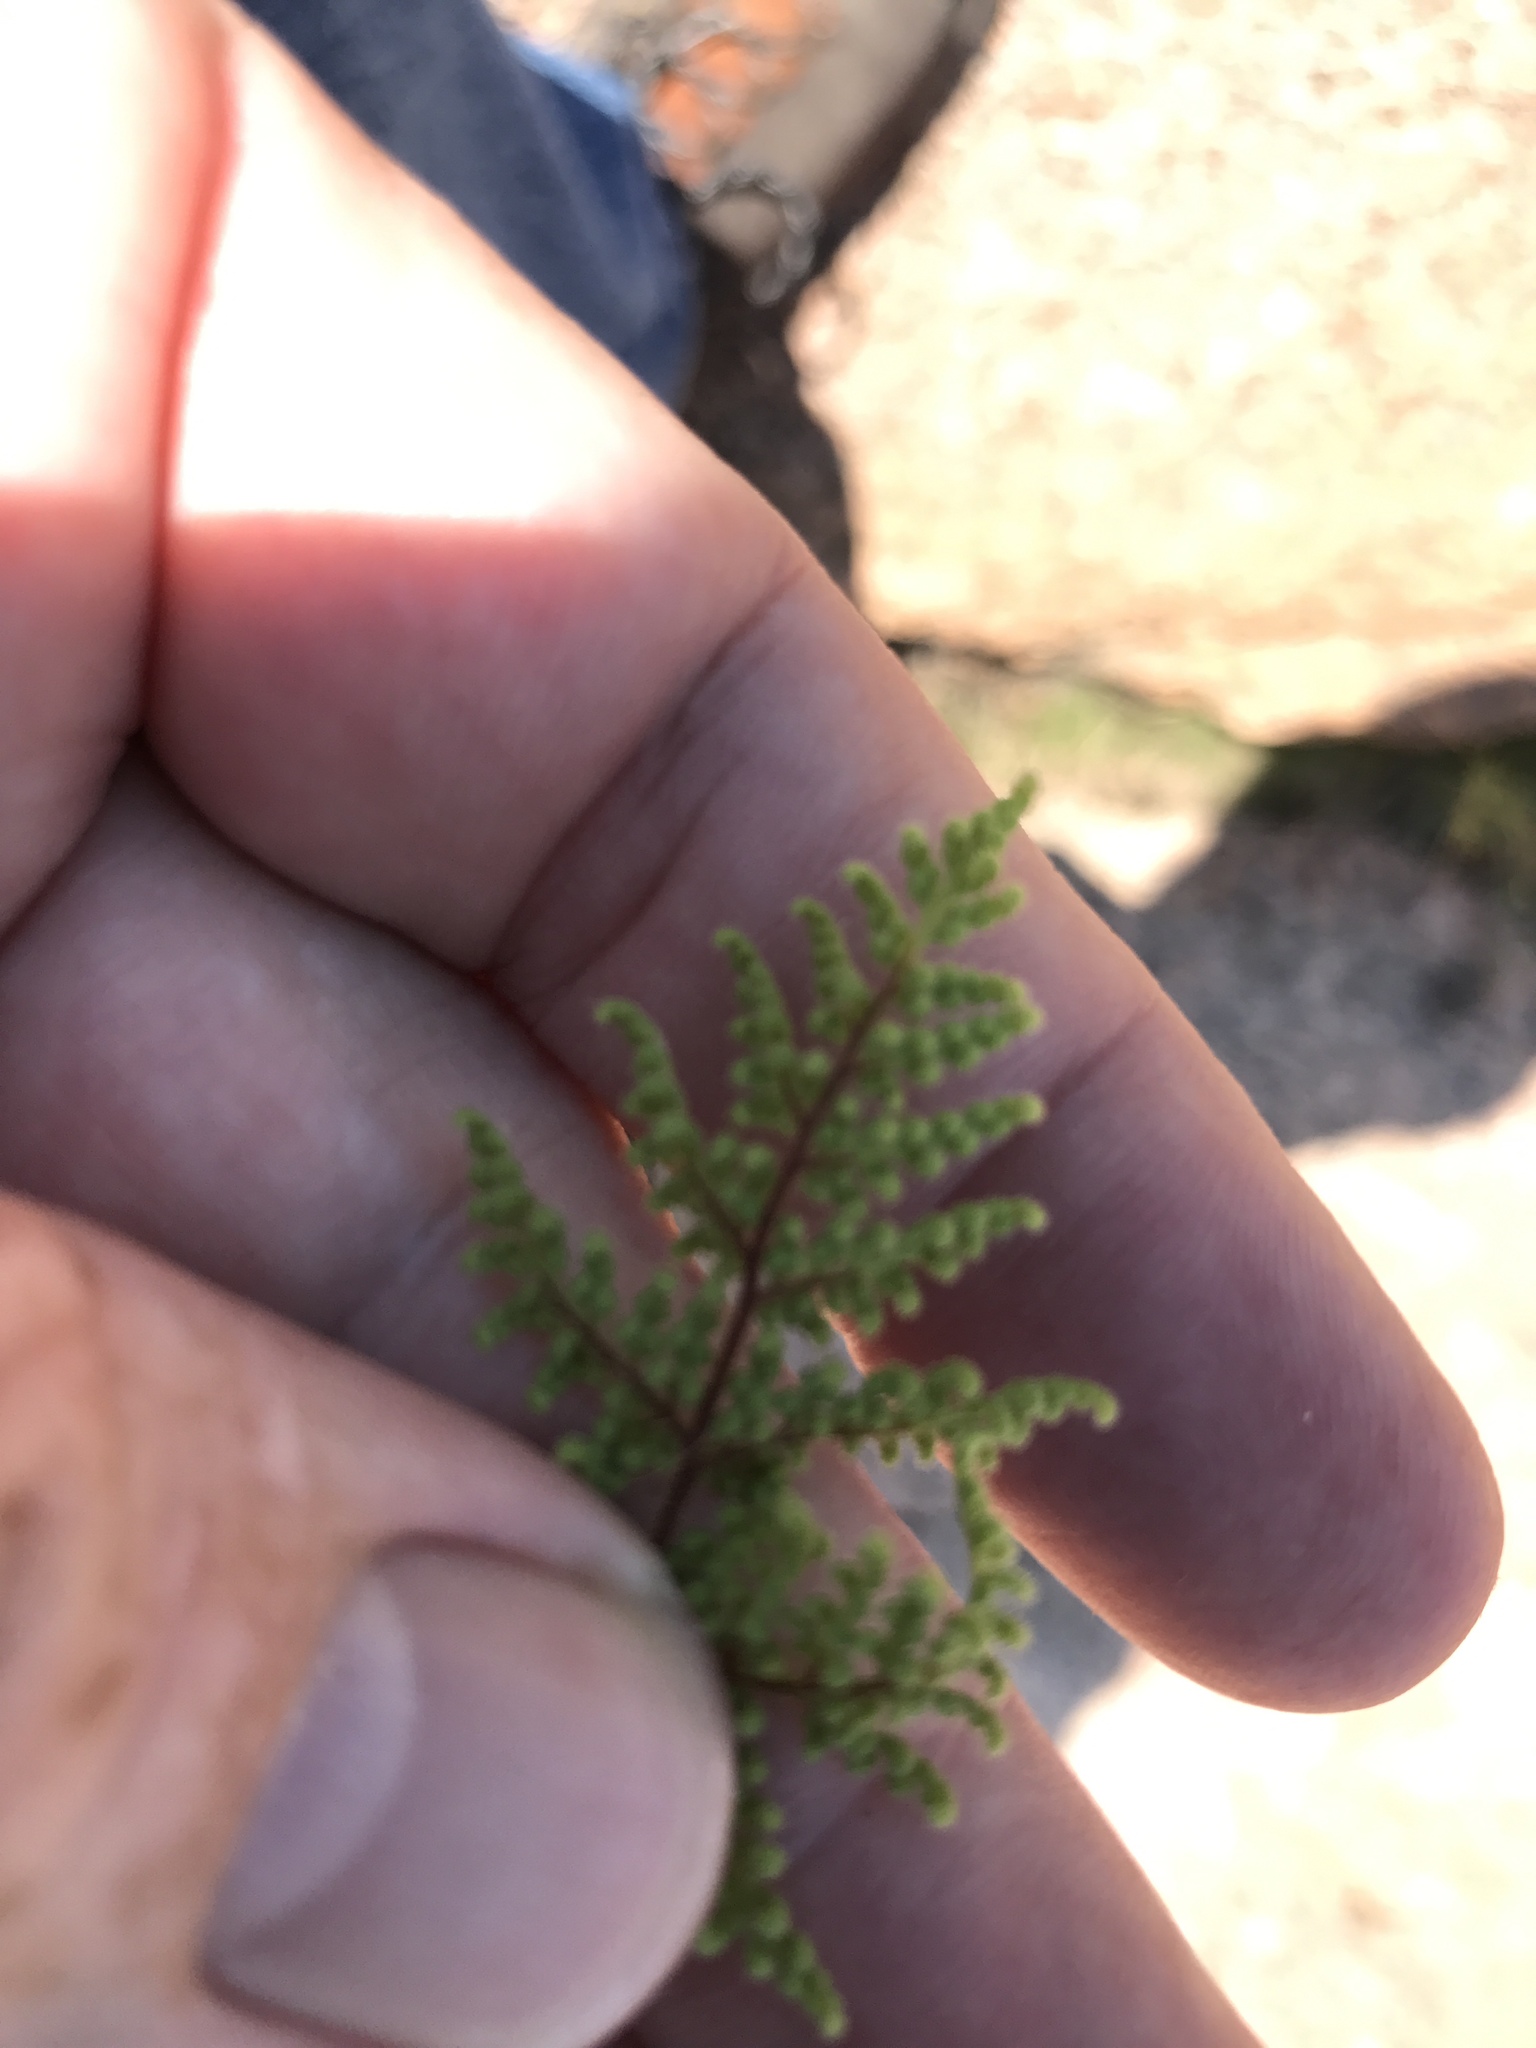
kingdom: Plantae
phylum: Tracheophyta
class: Polypodiopsida
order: Polypodiales
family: Pteridaceae
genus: Gaga
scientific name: Gaga kaulfussii
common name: Glandular lip fern
